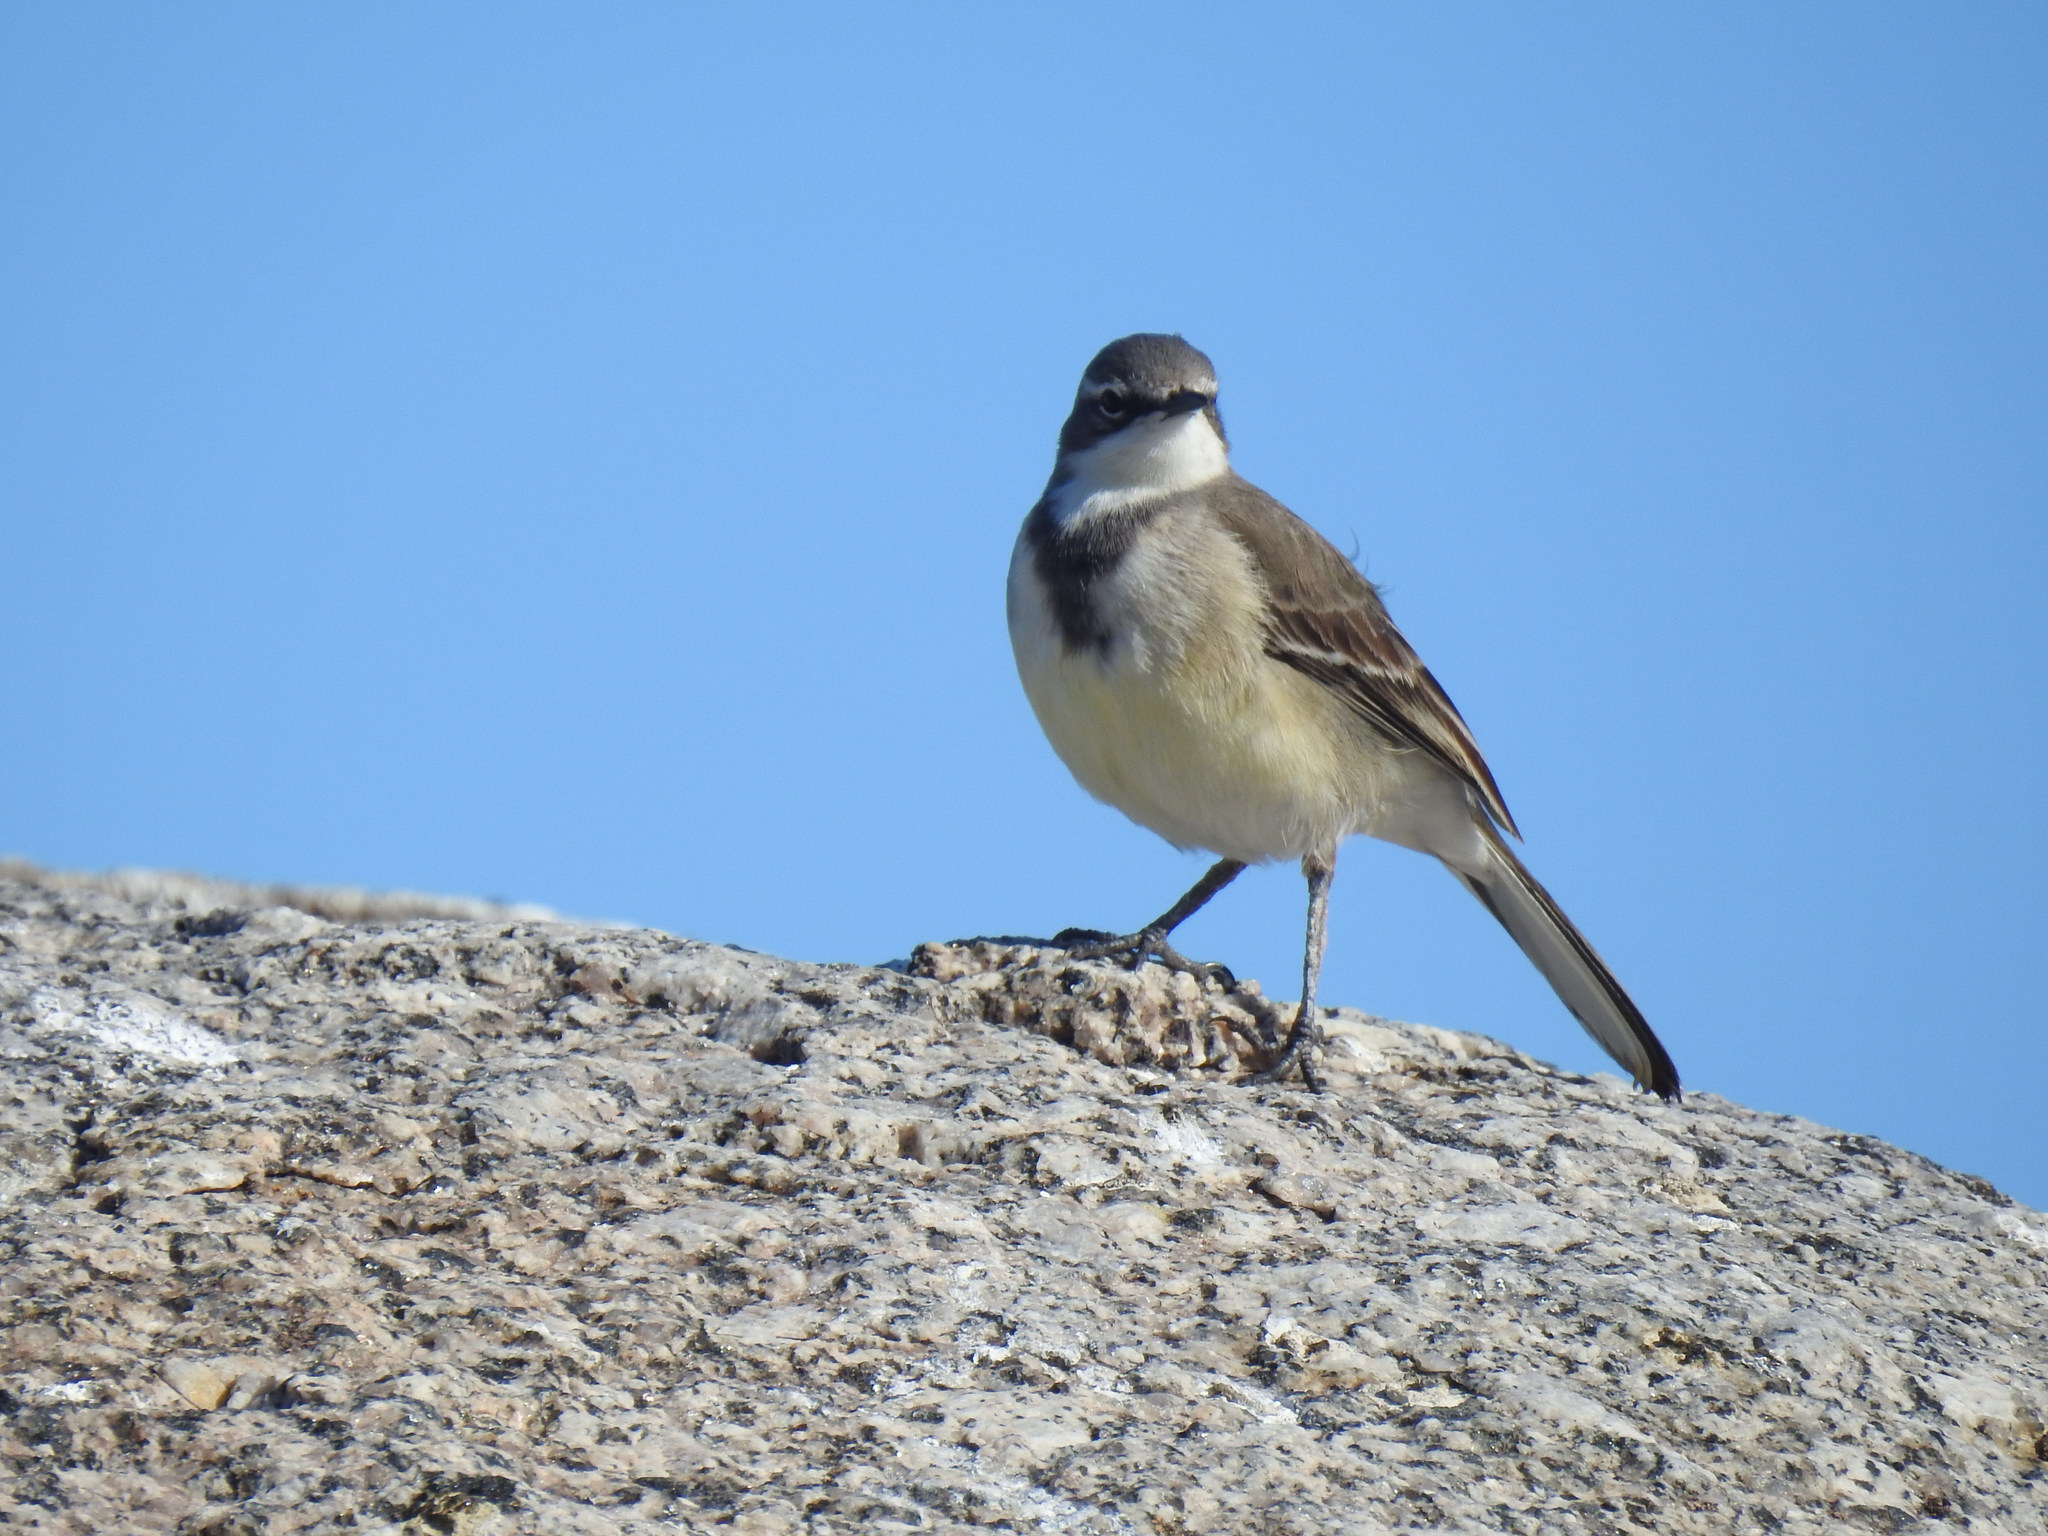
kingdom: Animalia
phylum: Chordata
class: Aves
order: Passeriformes
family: Motacillidae
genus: Motacilla
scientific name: Motacilla capensis
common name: Cape wagtail
